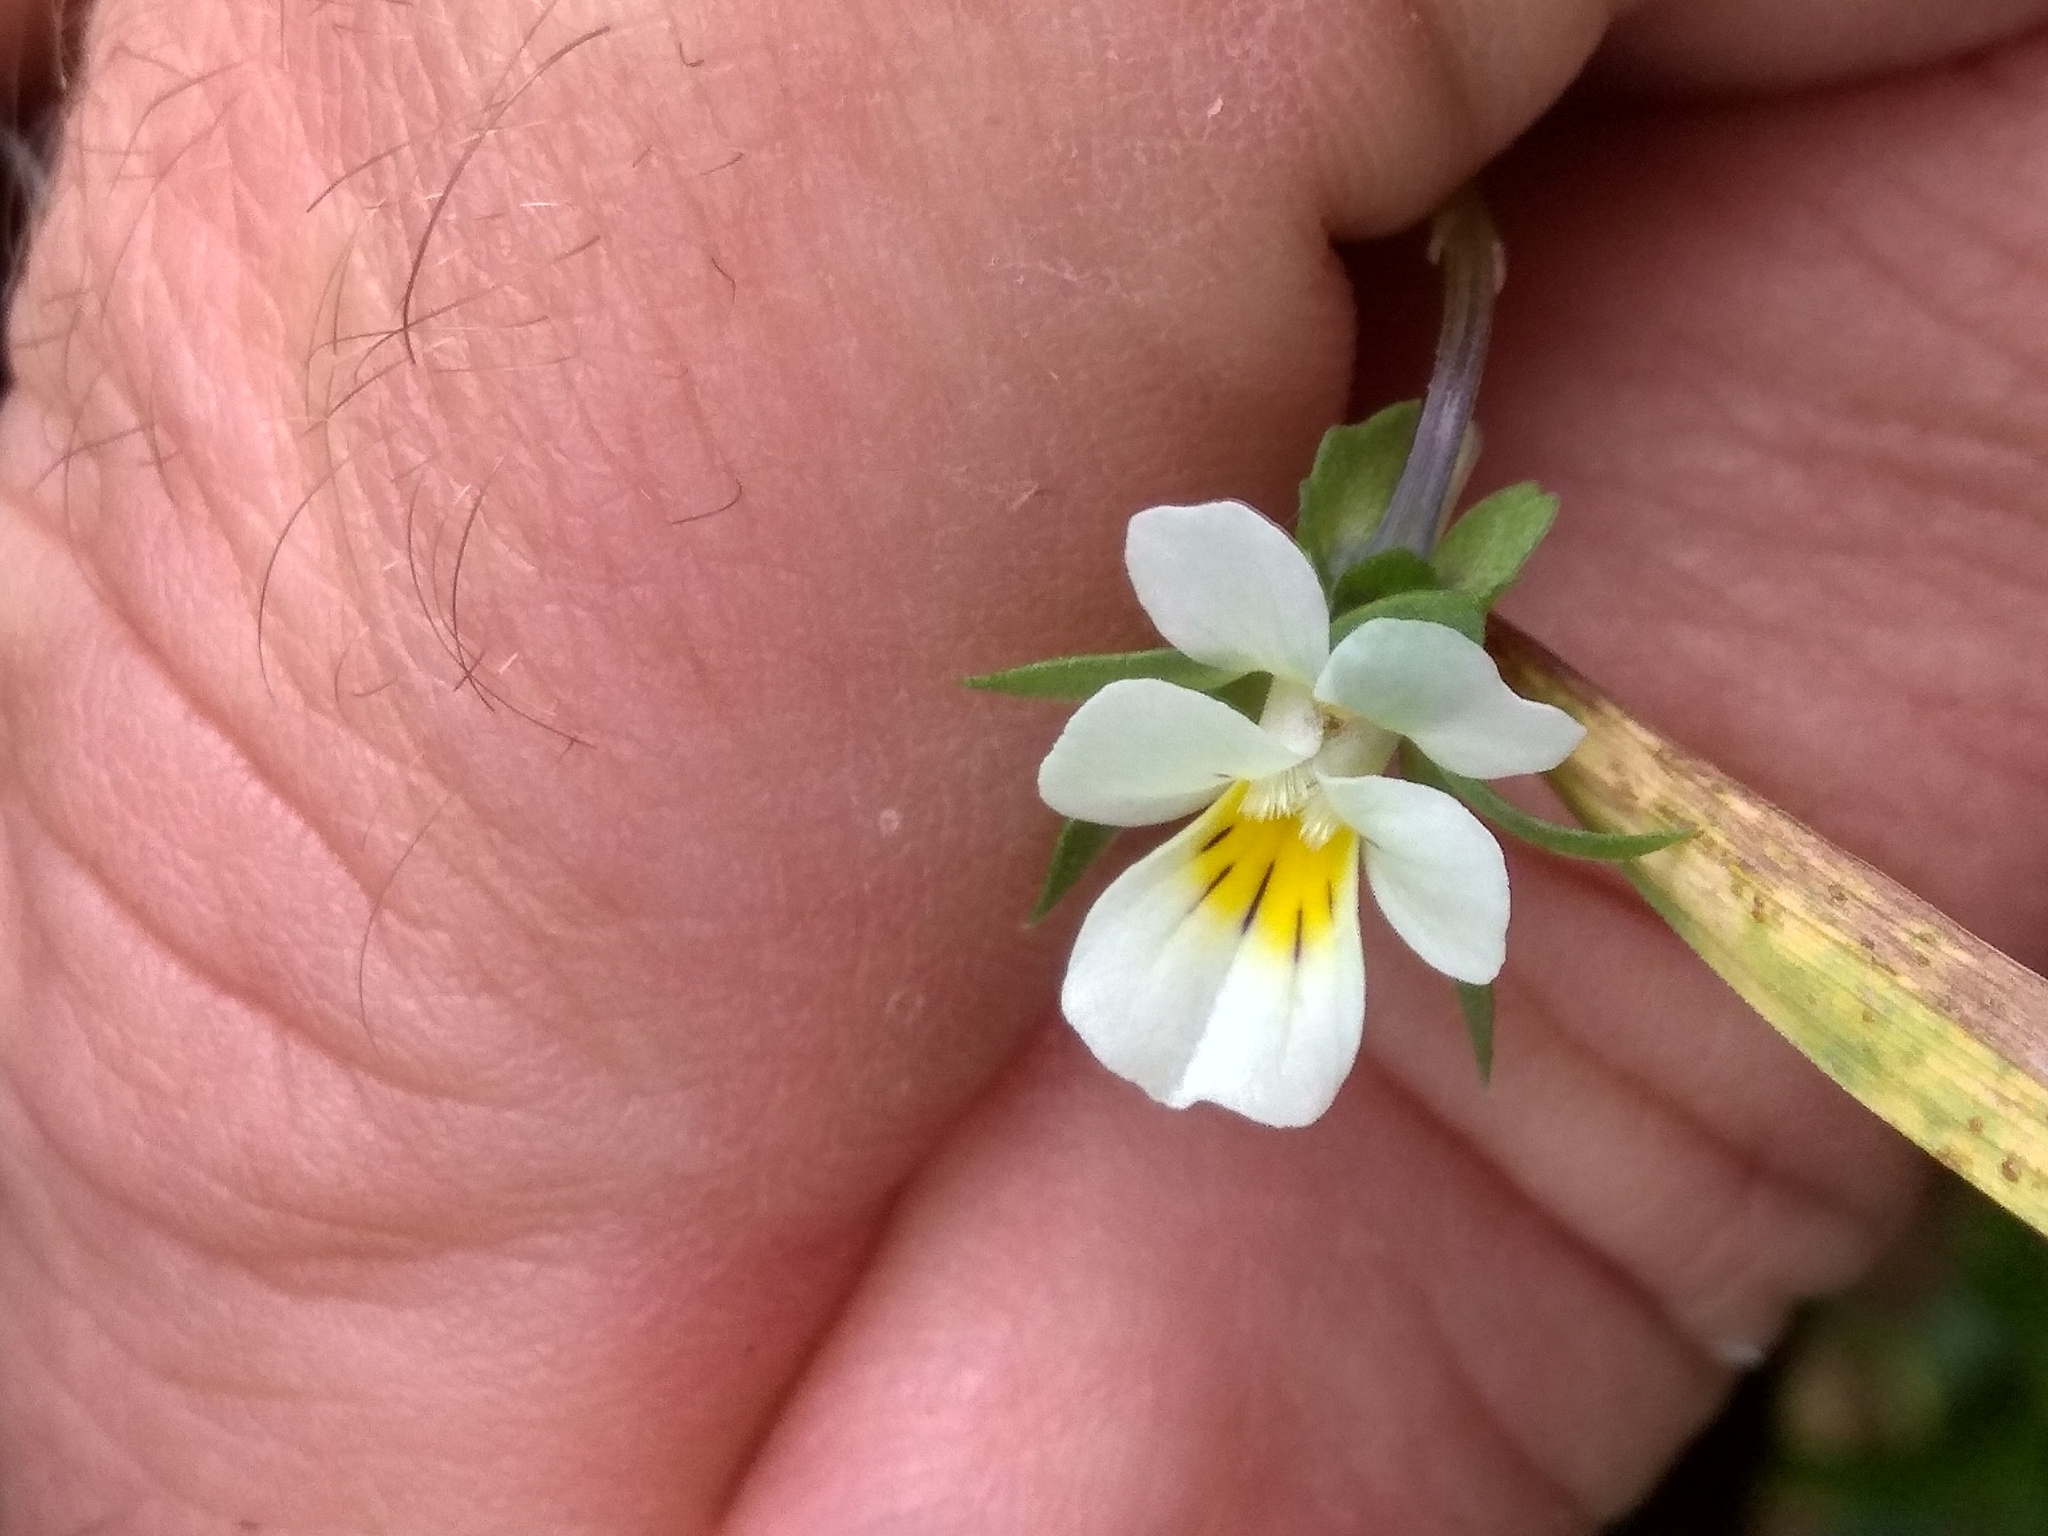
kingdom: Plantae
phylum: Tracheophyta
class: Magnoliopsida
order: Malpighiales
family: Violaceae
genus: Viola
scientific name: Viola arvensis
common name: Field pansy
